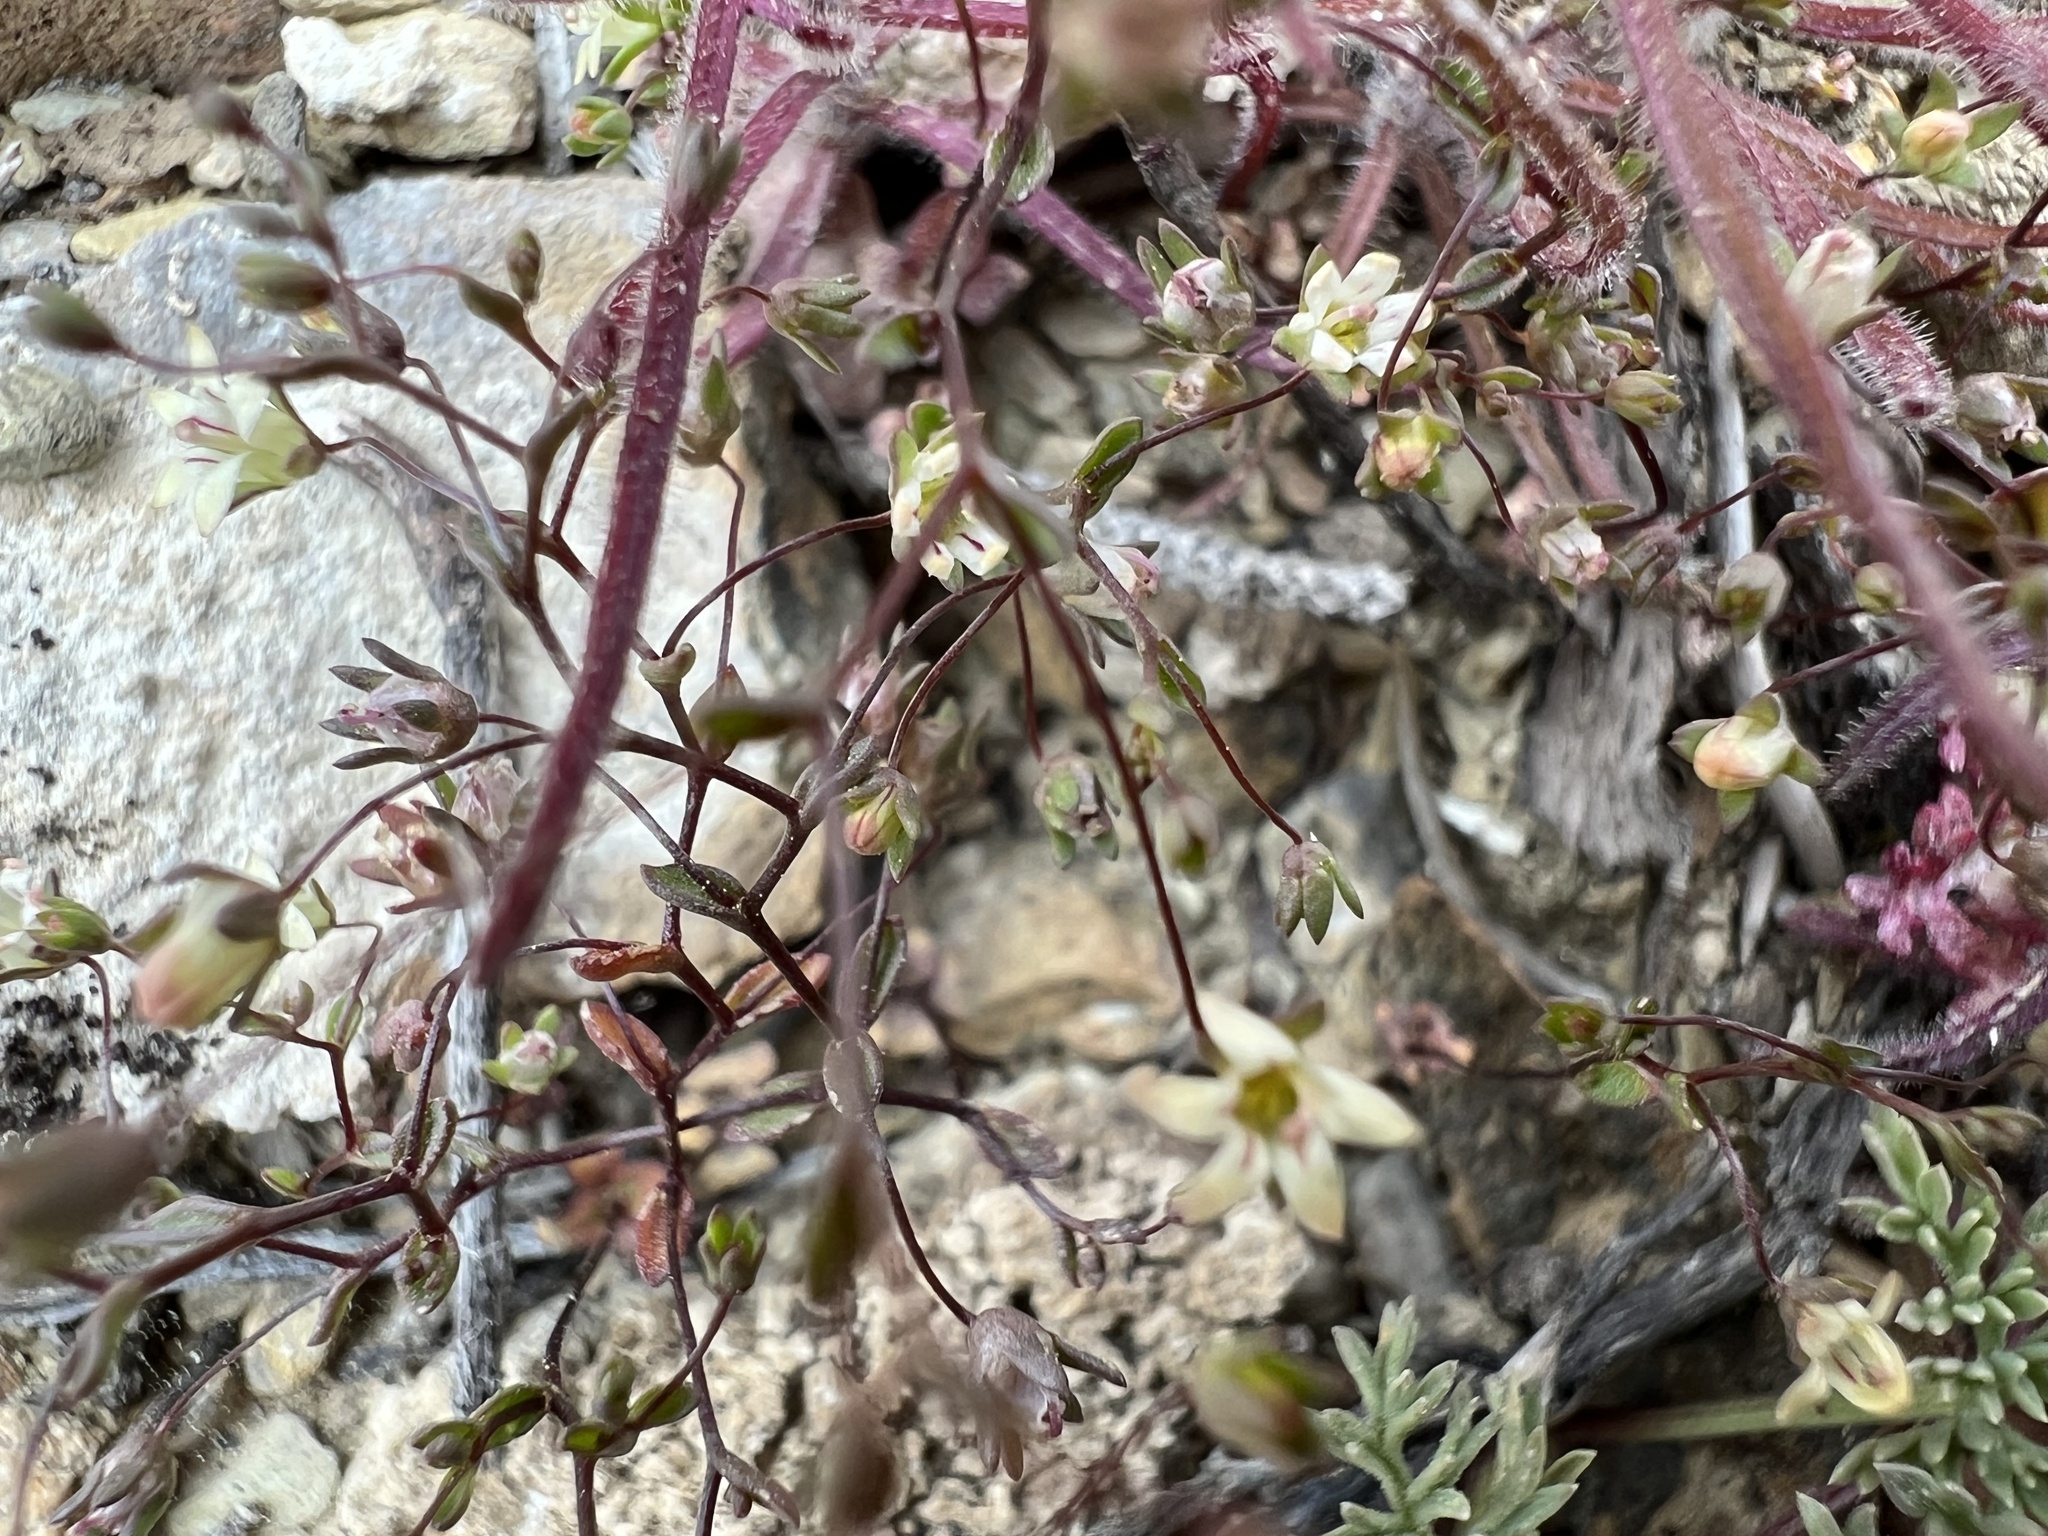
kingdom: Plantae
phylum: Tracheophyta
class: Magnoliopsida
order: Asterales
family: Campanulaceae
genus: Nemacladus
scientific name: Nemacladus inyoensis
